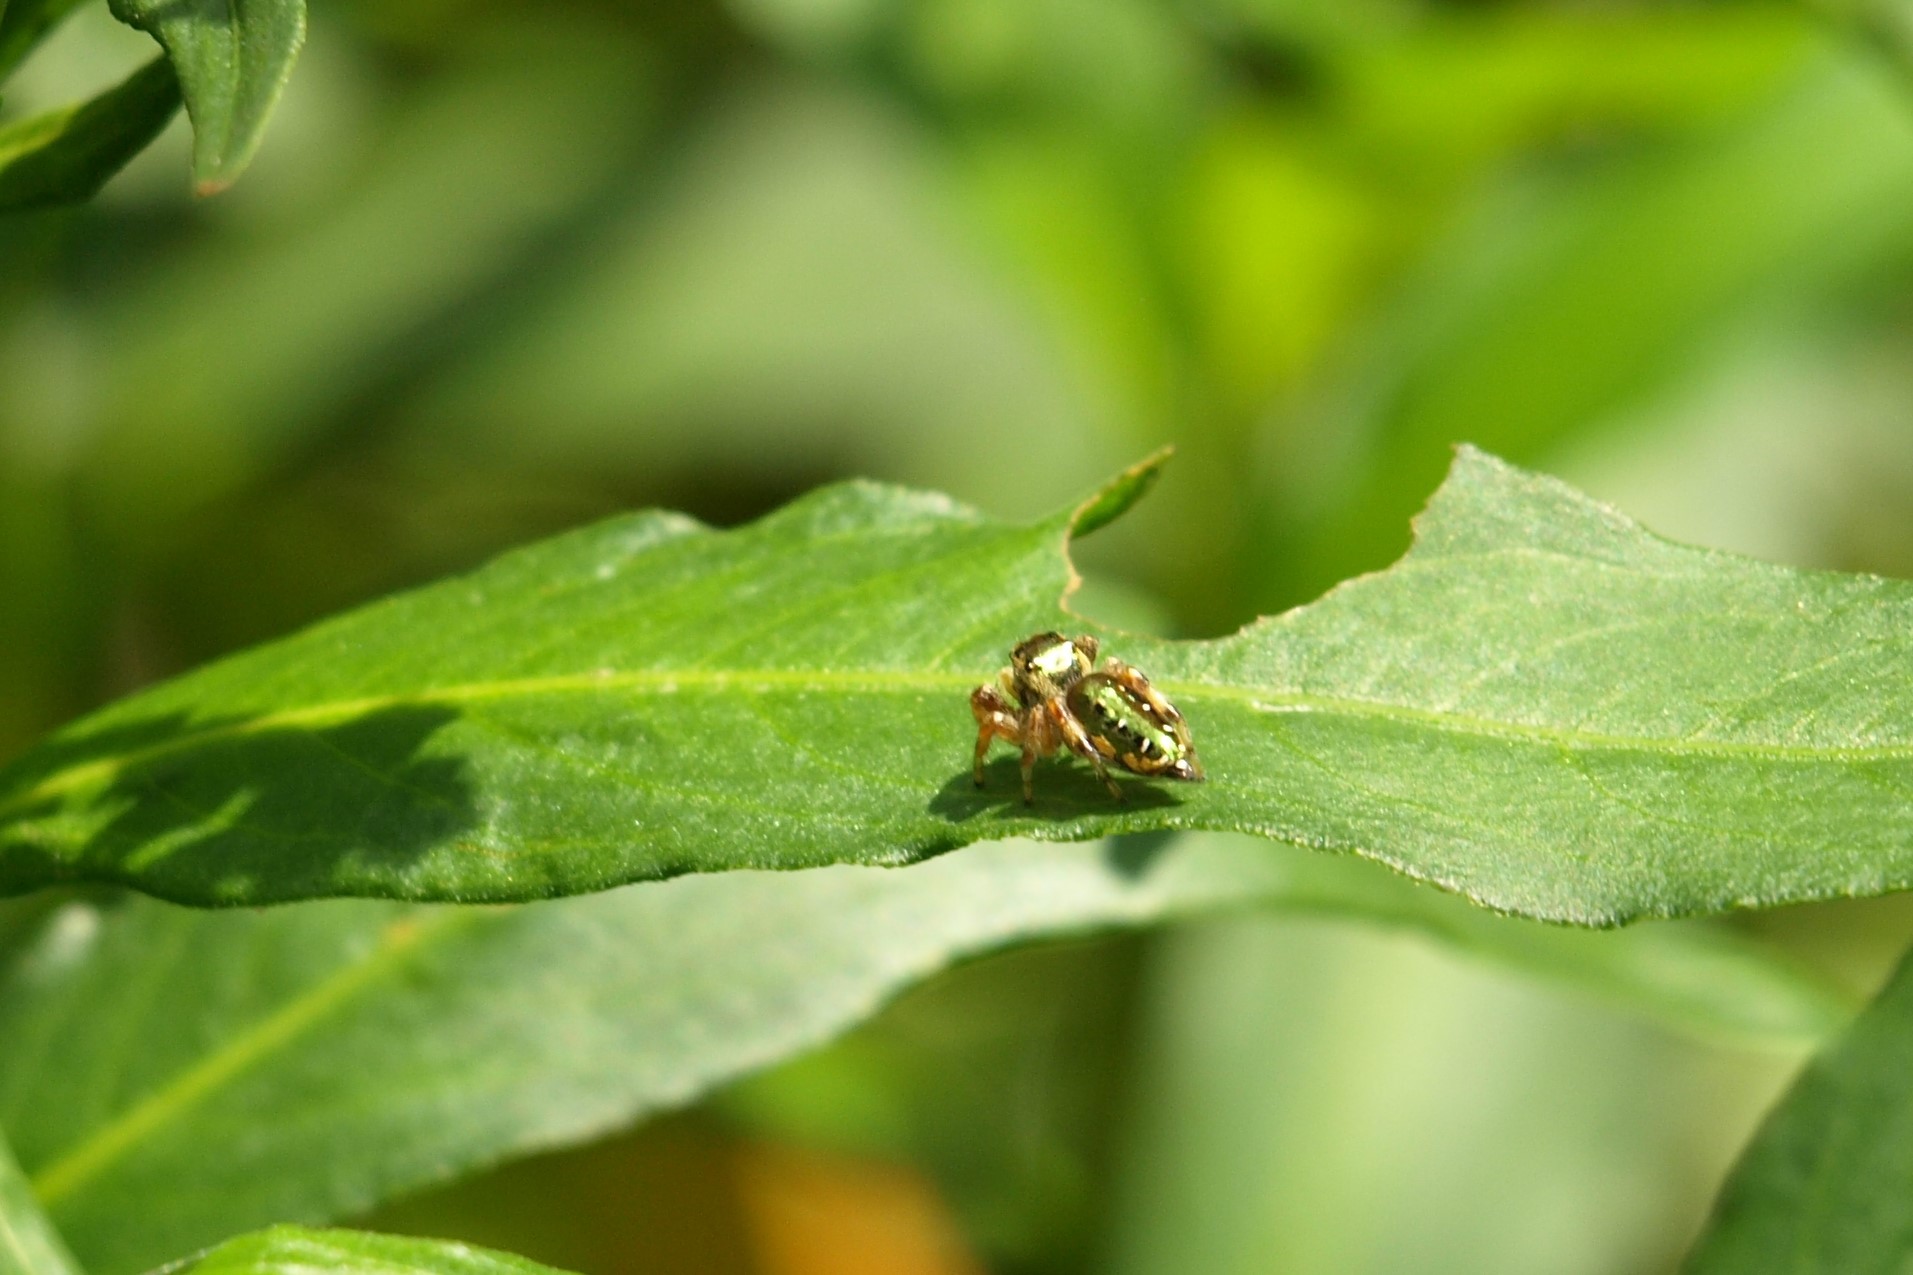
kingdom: Animalia
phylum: Arthropoda
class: Arachnida
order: Araneae
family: Salticidae
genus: Paraphidippus
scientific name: Paraphidippus aurantius
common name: Jumping spiders
